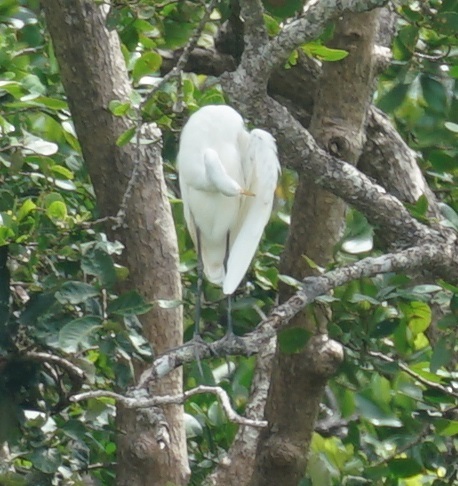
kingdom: Animalia
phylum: Chordata
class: Aves
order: Pelecaniformes
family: Ardeidae
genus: Ardea
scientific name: Ardea modesta
